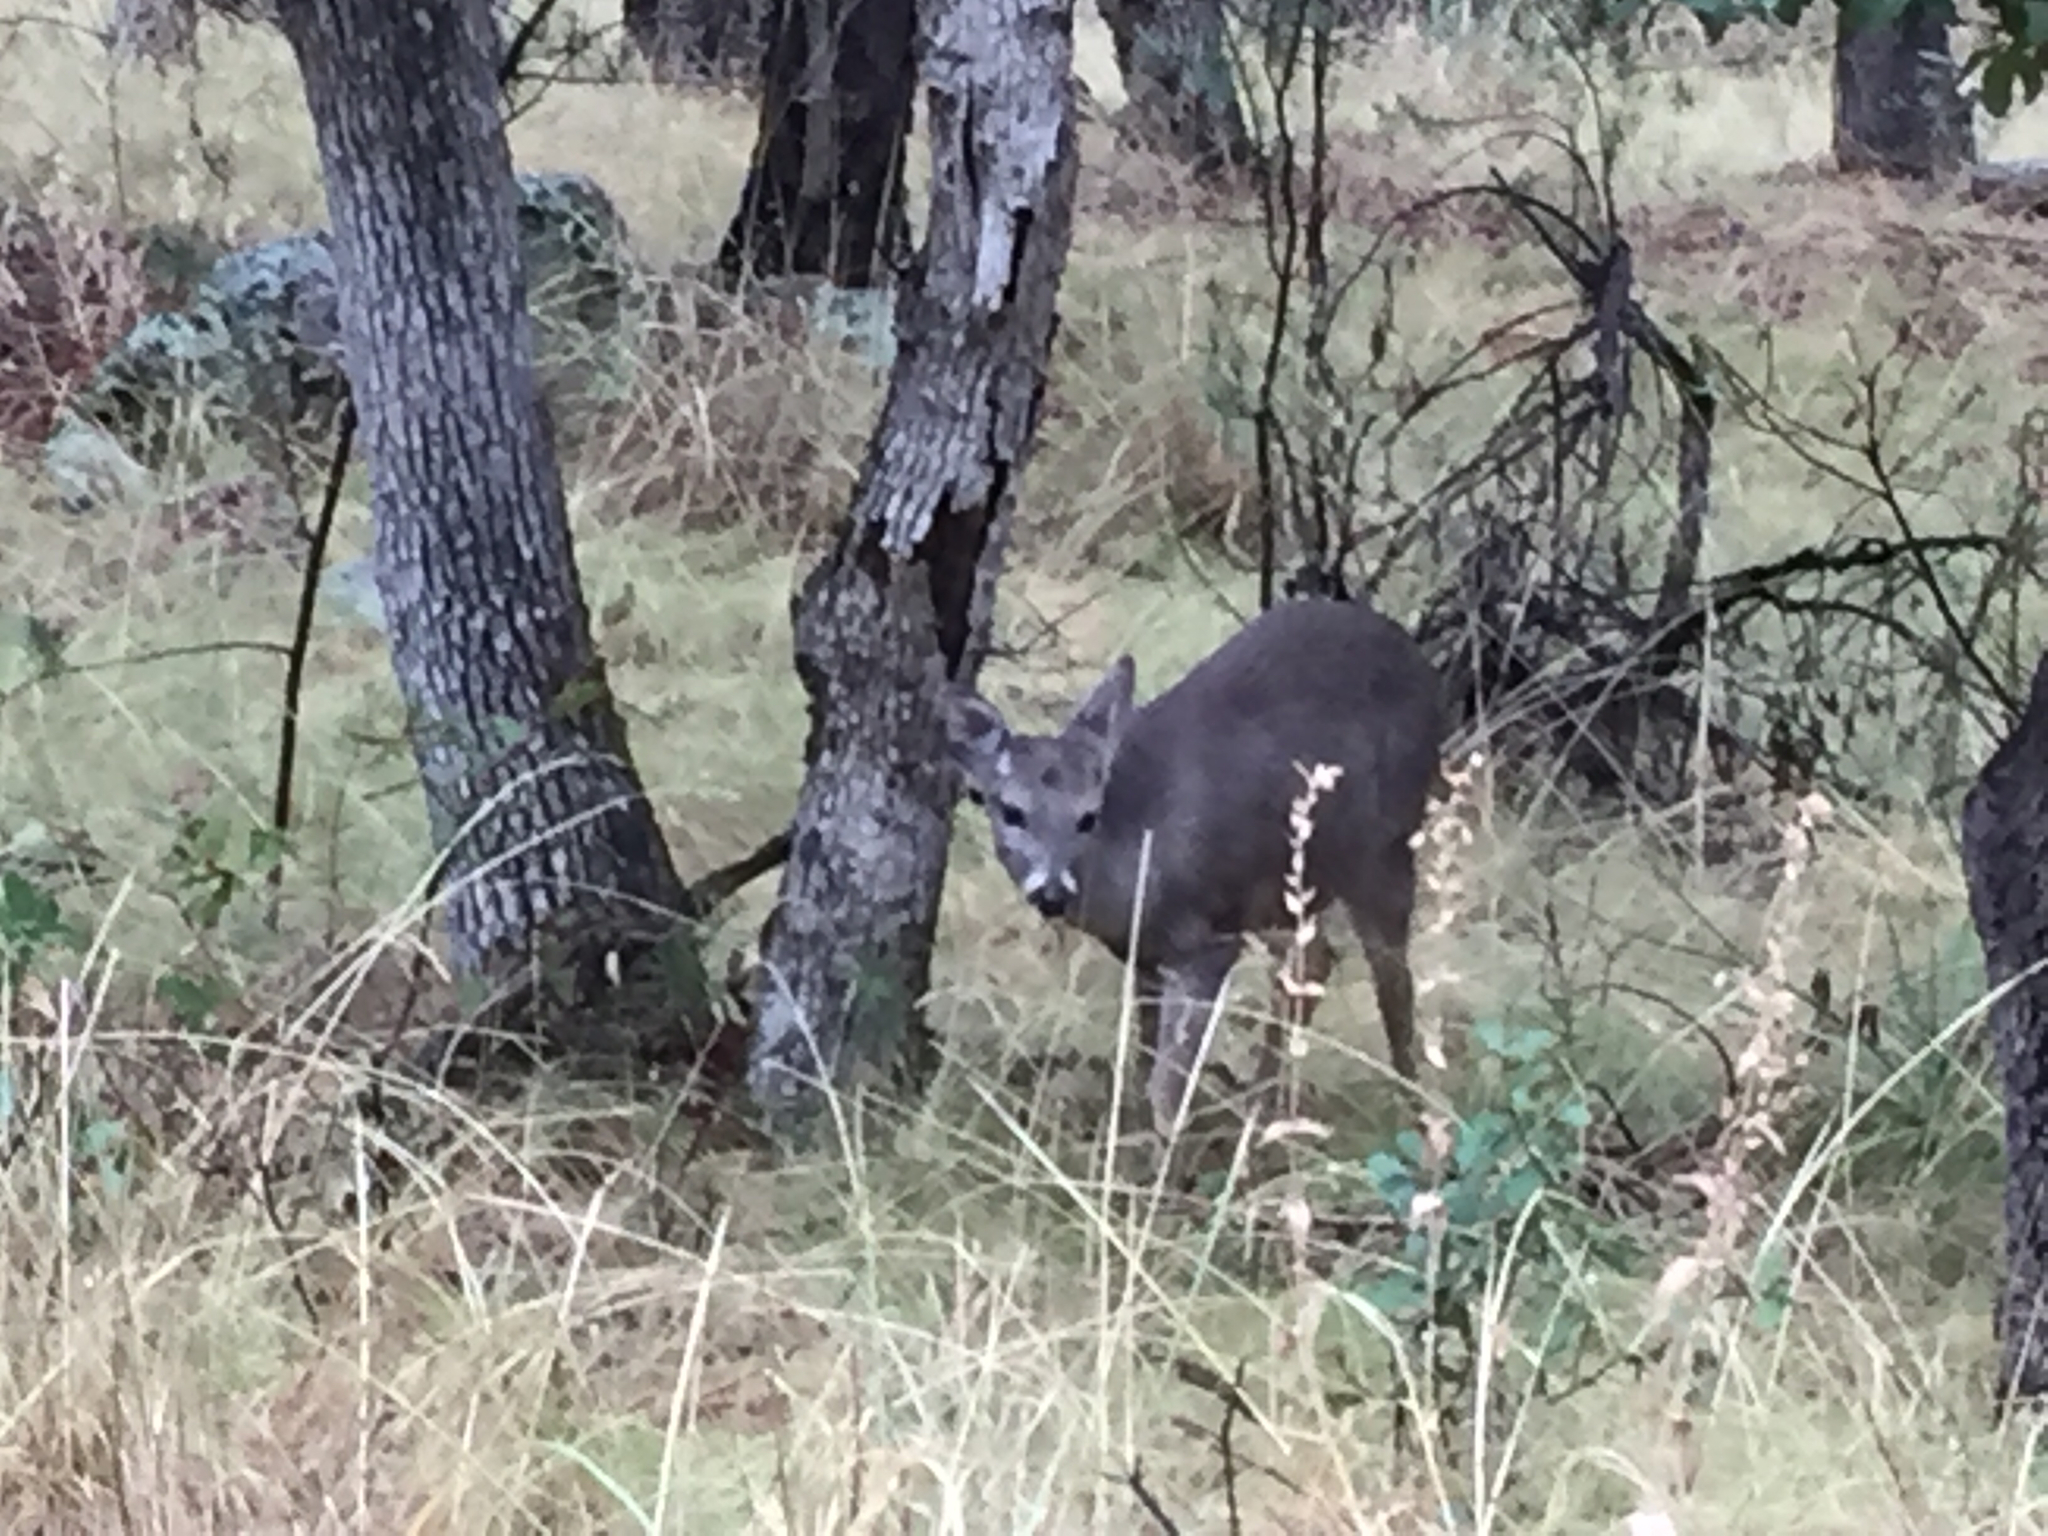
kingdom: Animalia
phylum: Chordata
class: Mammalia
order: Artiodactyla
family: Cervidae
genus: Odocoileus
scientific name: Odocoileus virginianus
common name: White-tailed deer
